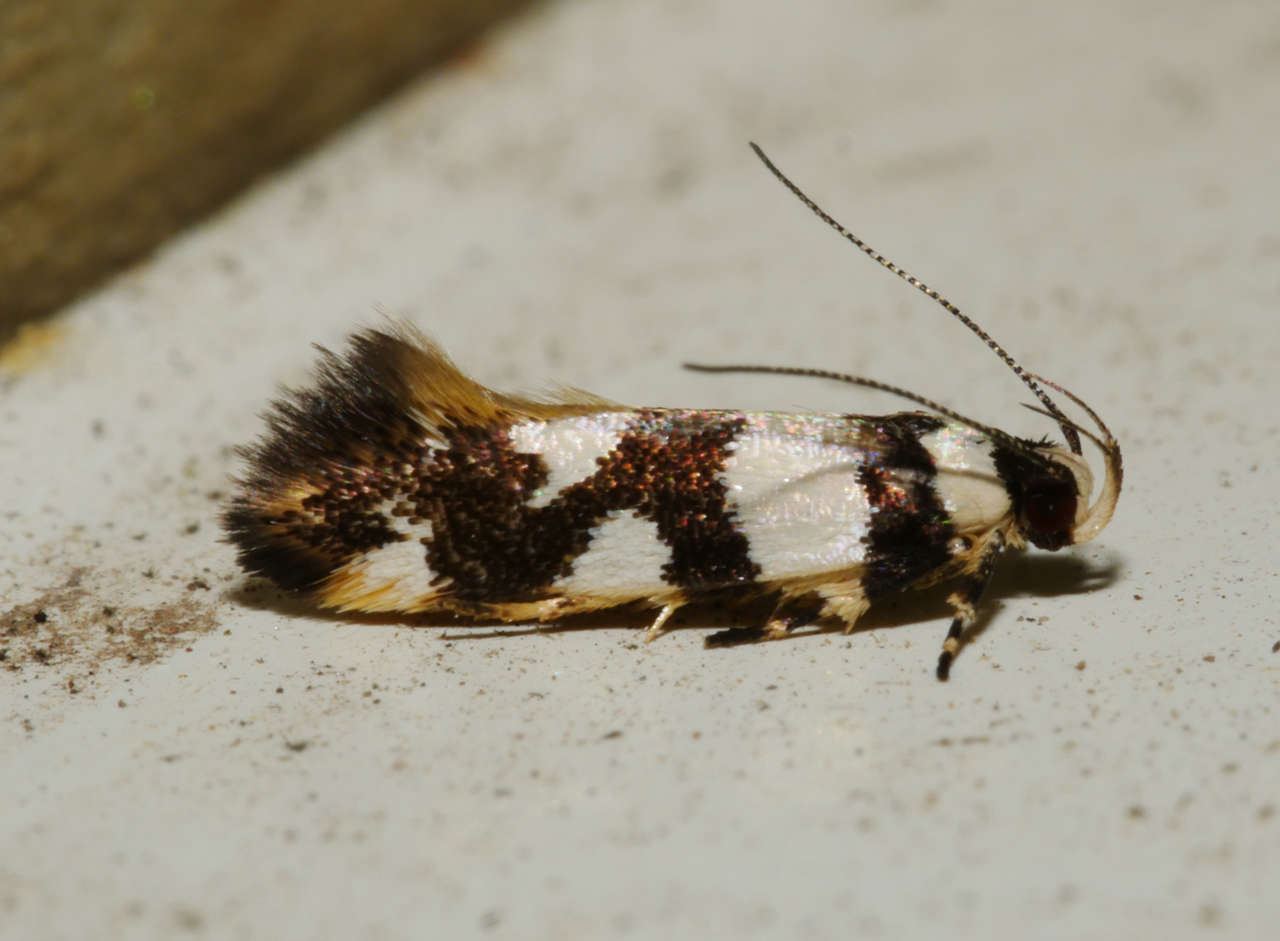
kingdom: Animalia
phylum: Arthropoda
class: Insecta
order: Lepidoptera
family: Cosmopterigidae
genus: Macrobathra
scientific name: Macrobathra desmotoma
